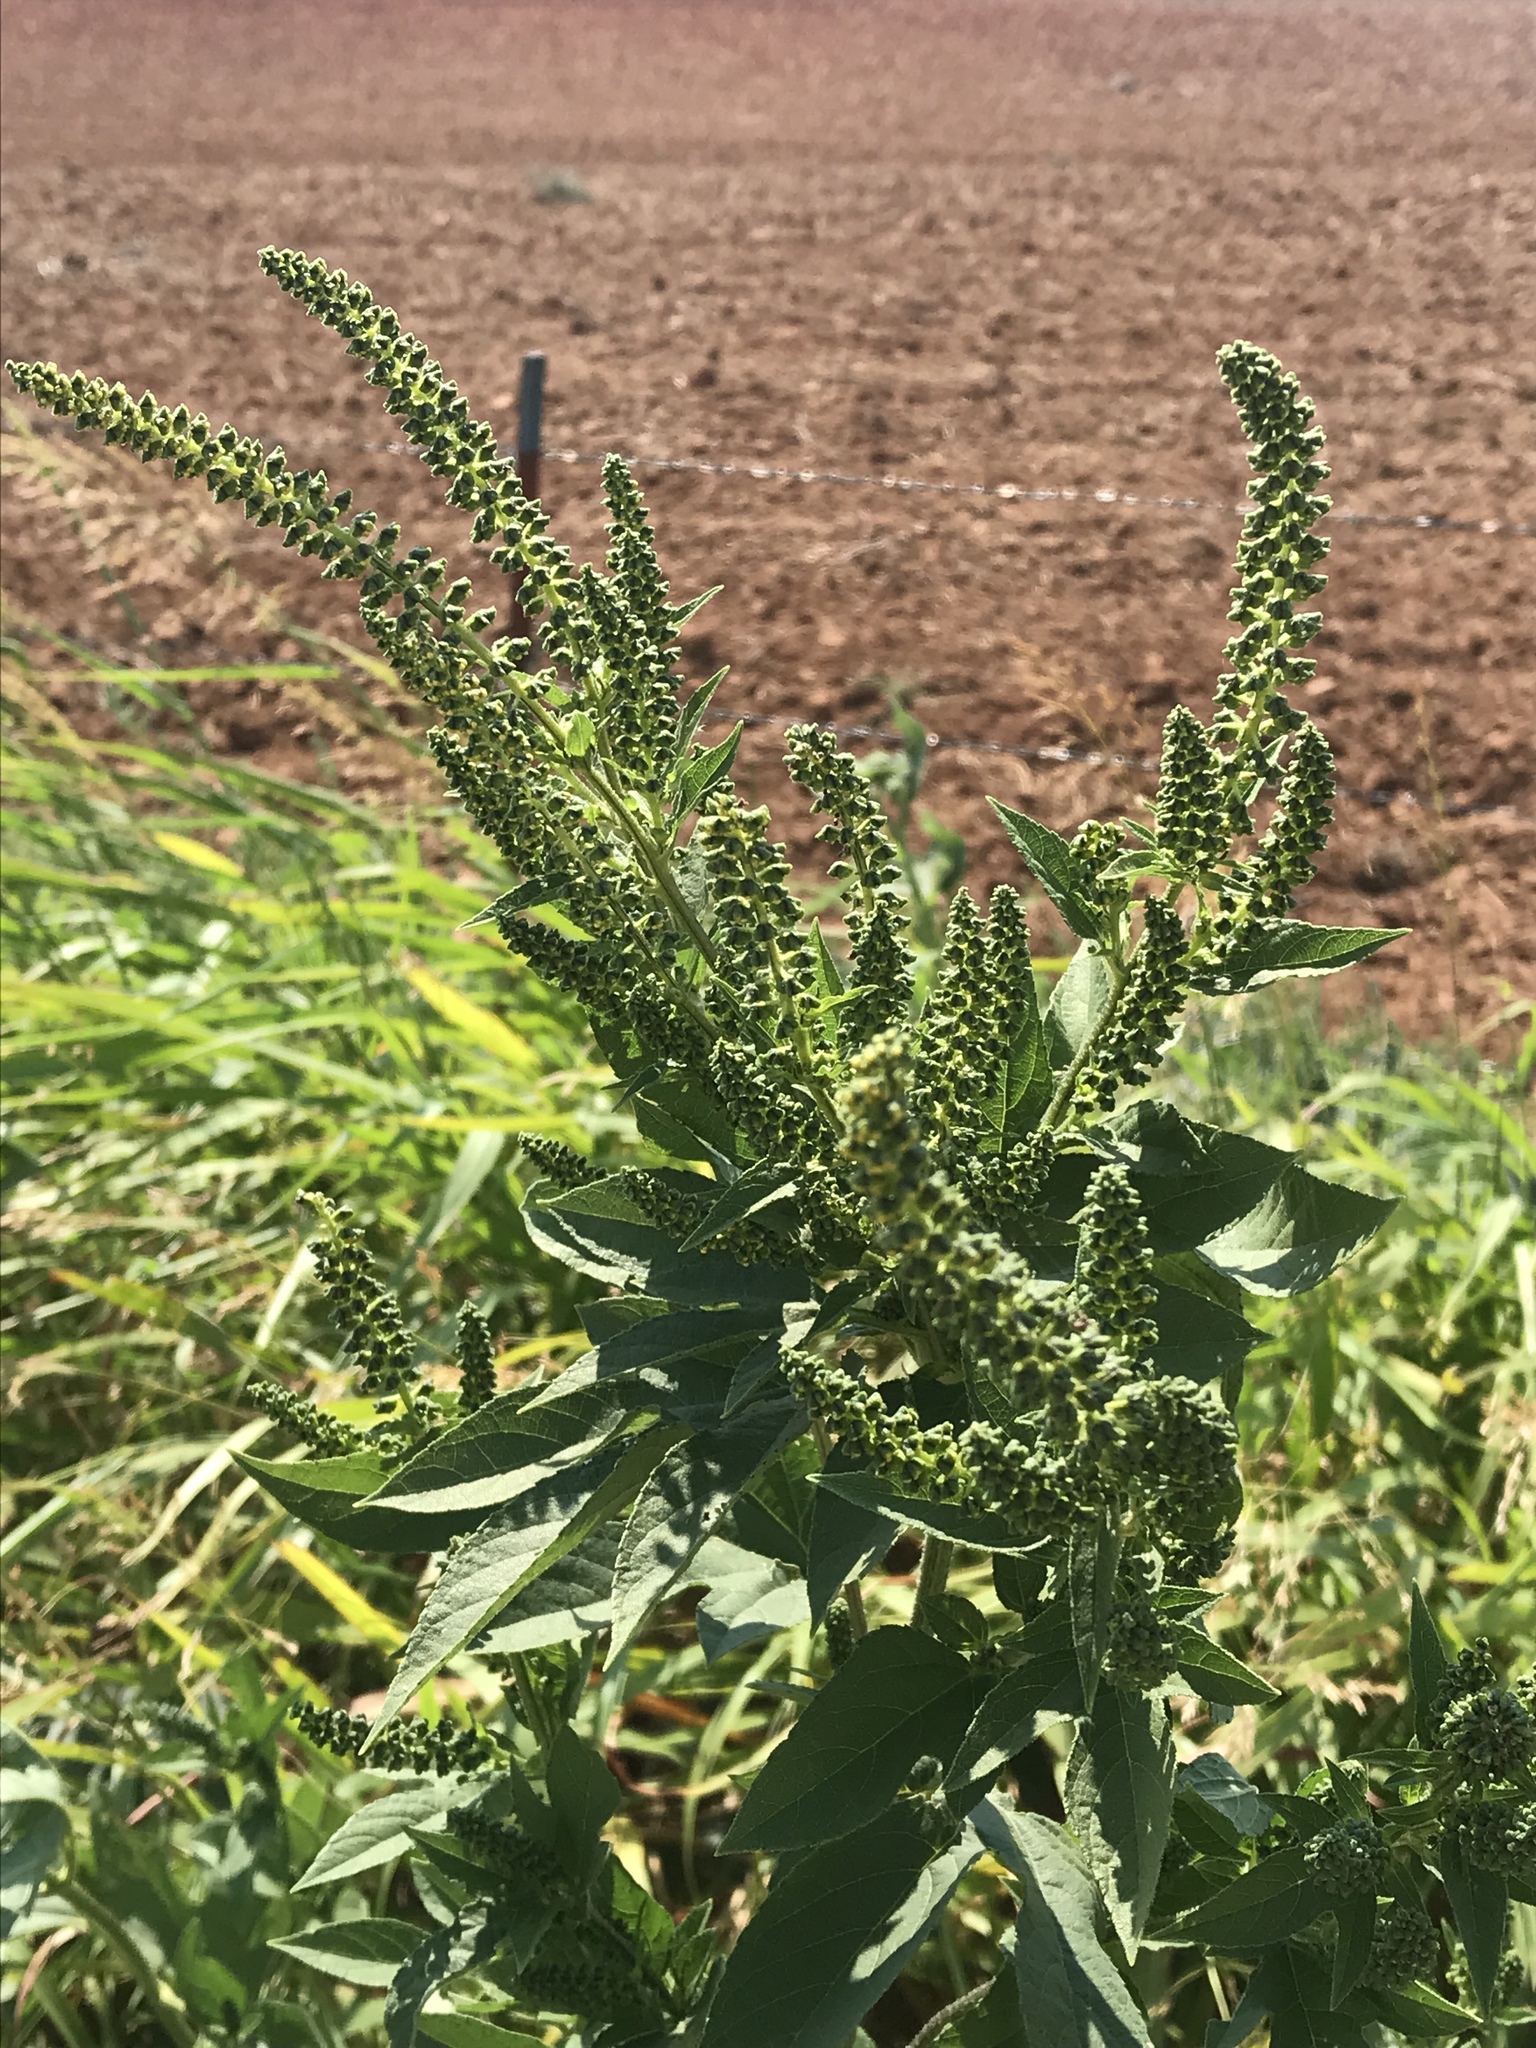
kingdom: Plantae
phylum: Tracheophyta
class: Magnoliopsida
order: Asterales
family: Asteraceae
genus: Ambrosia
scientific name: Ambrosia trifida
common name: Giant ragweed
